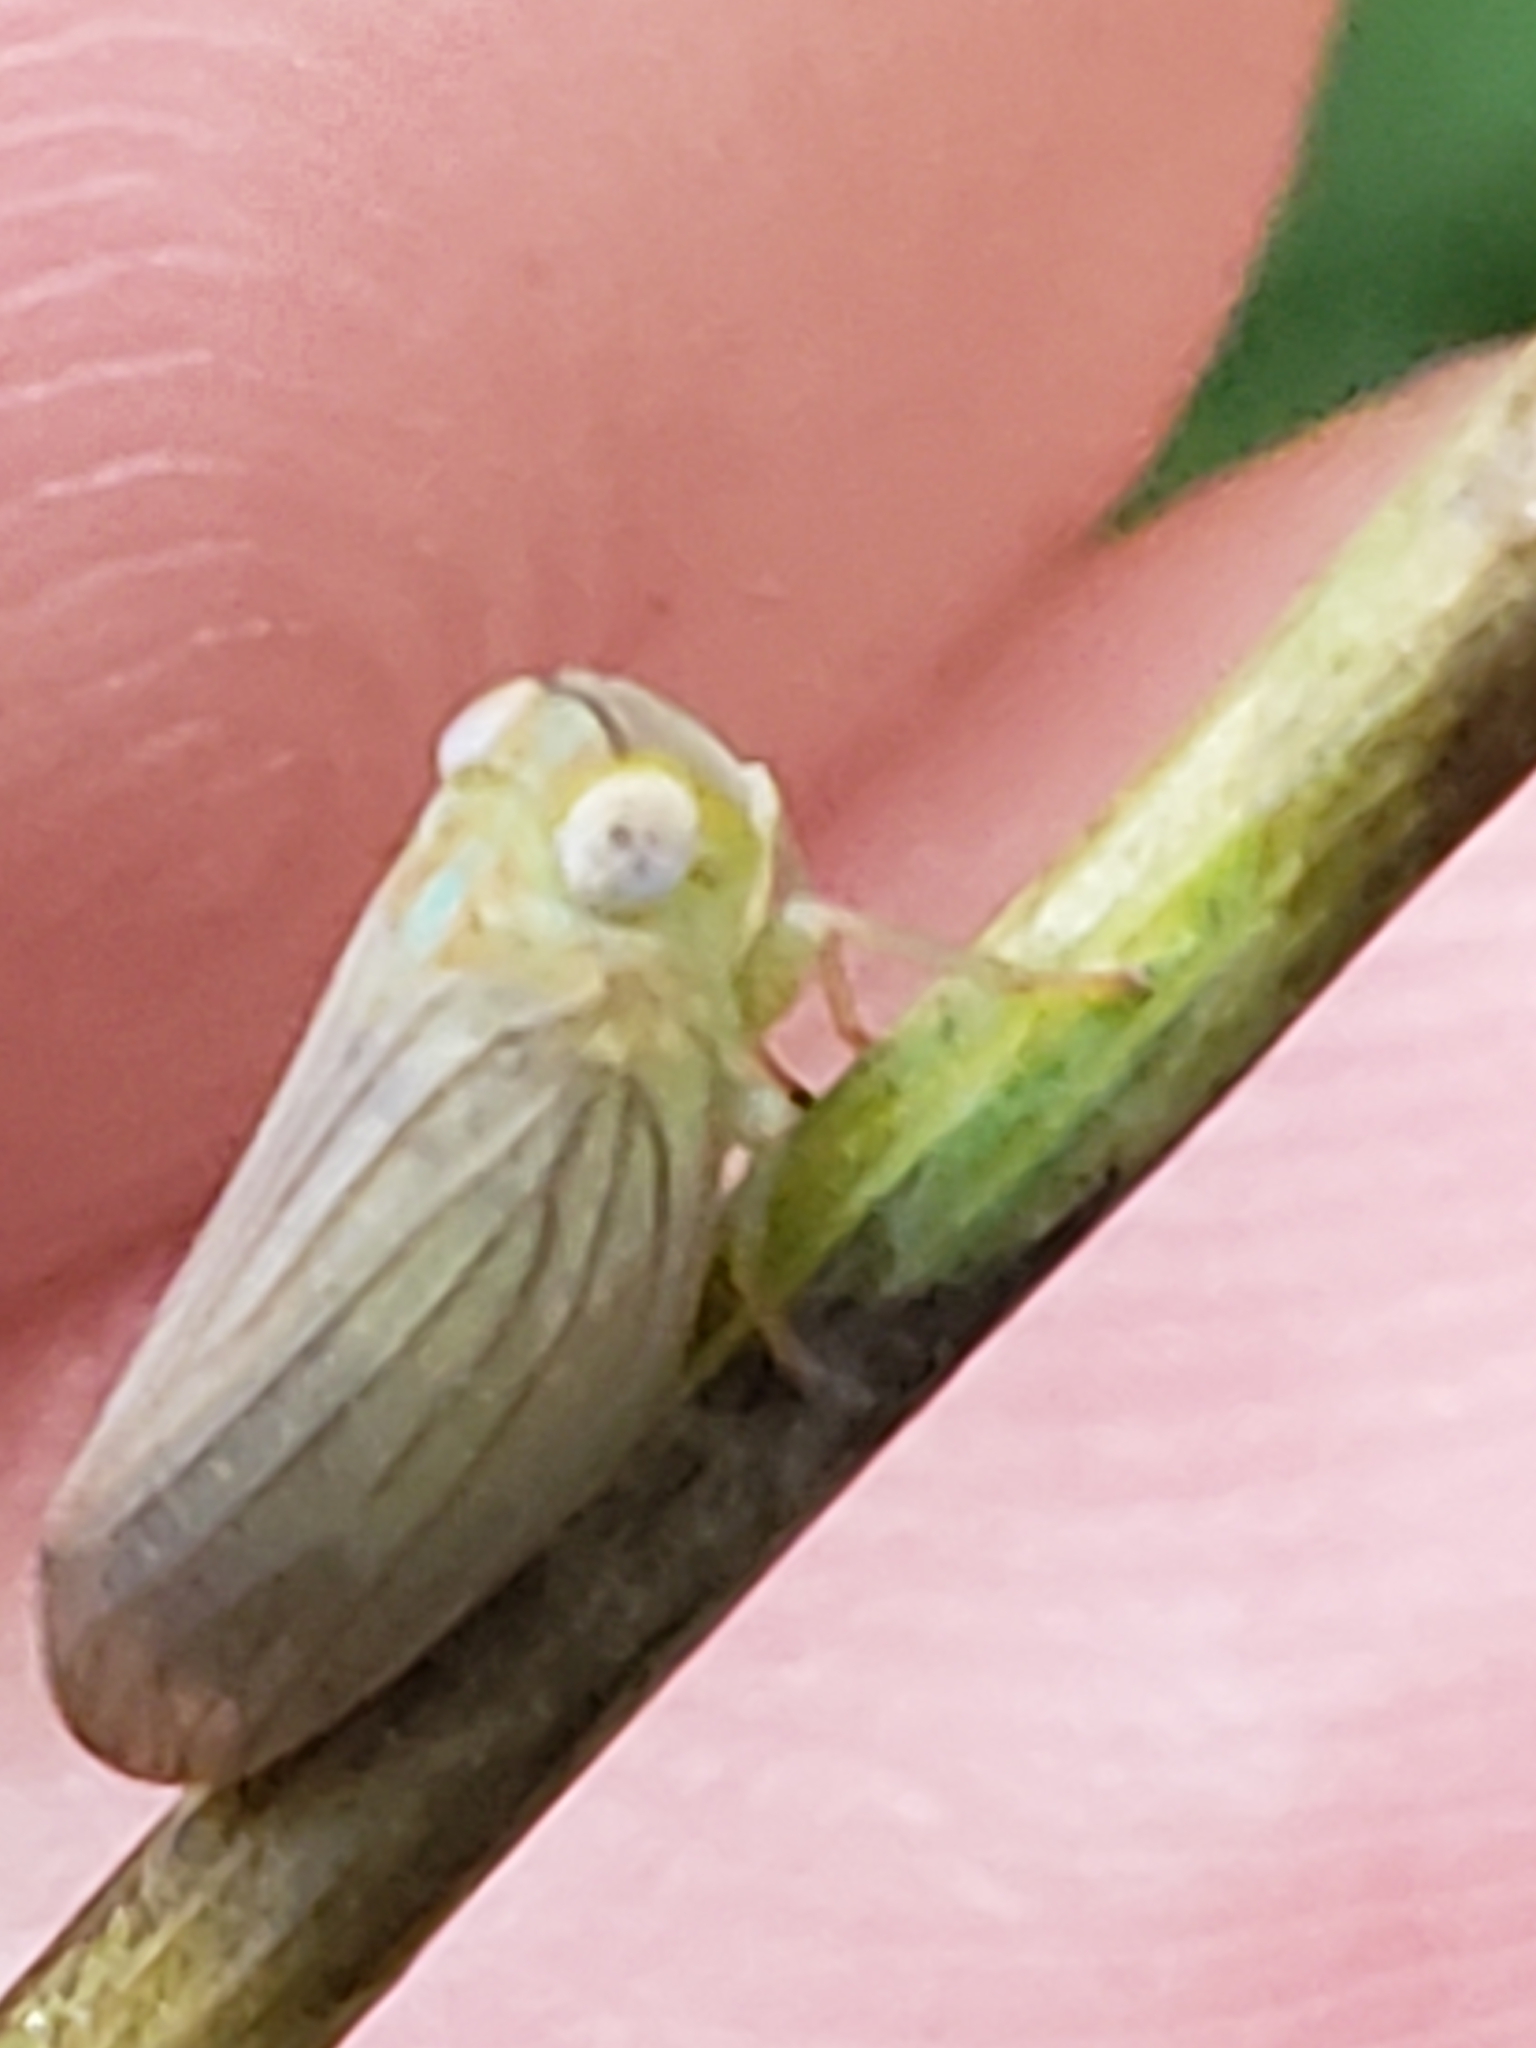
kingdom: Animalia
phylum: Arthropoda
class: Insecta
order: Hemiptera
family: Issidae
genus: Aplos
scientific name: Aplos simplex
